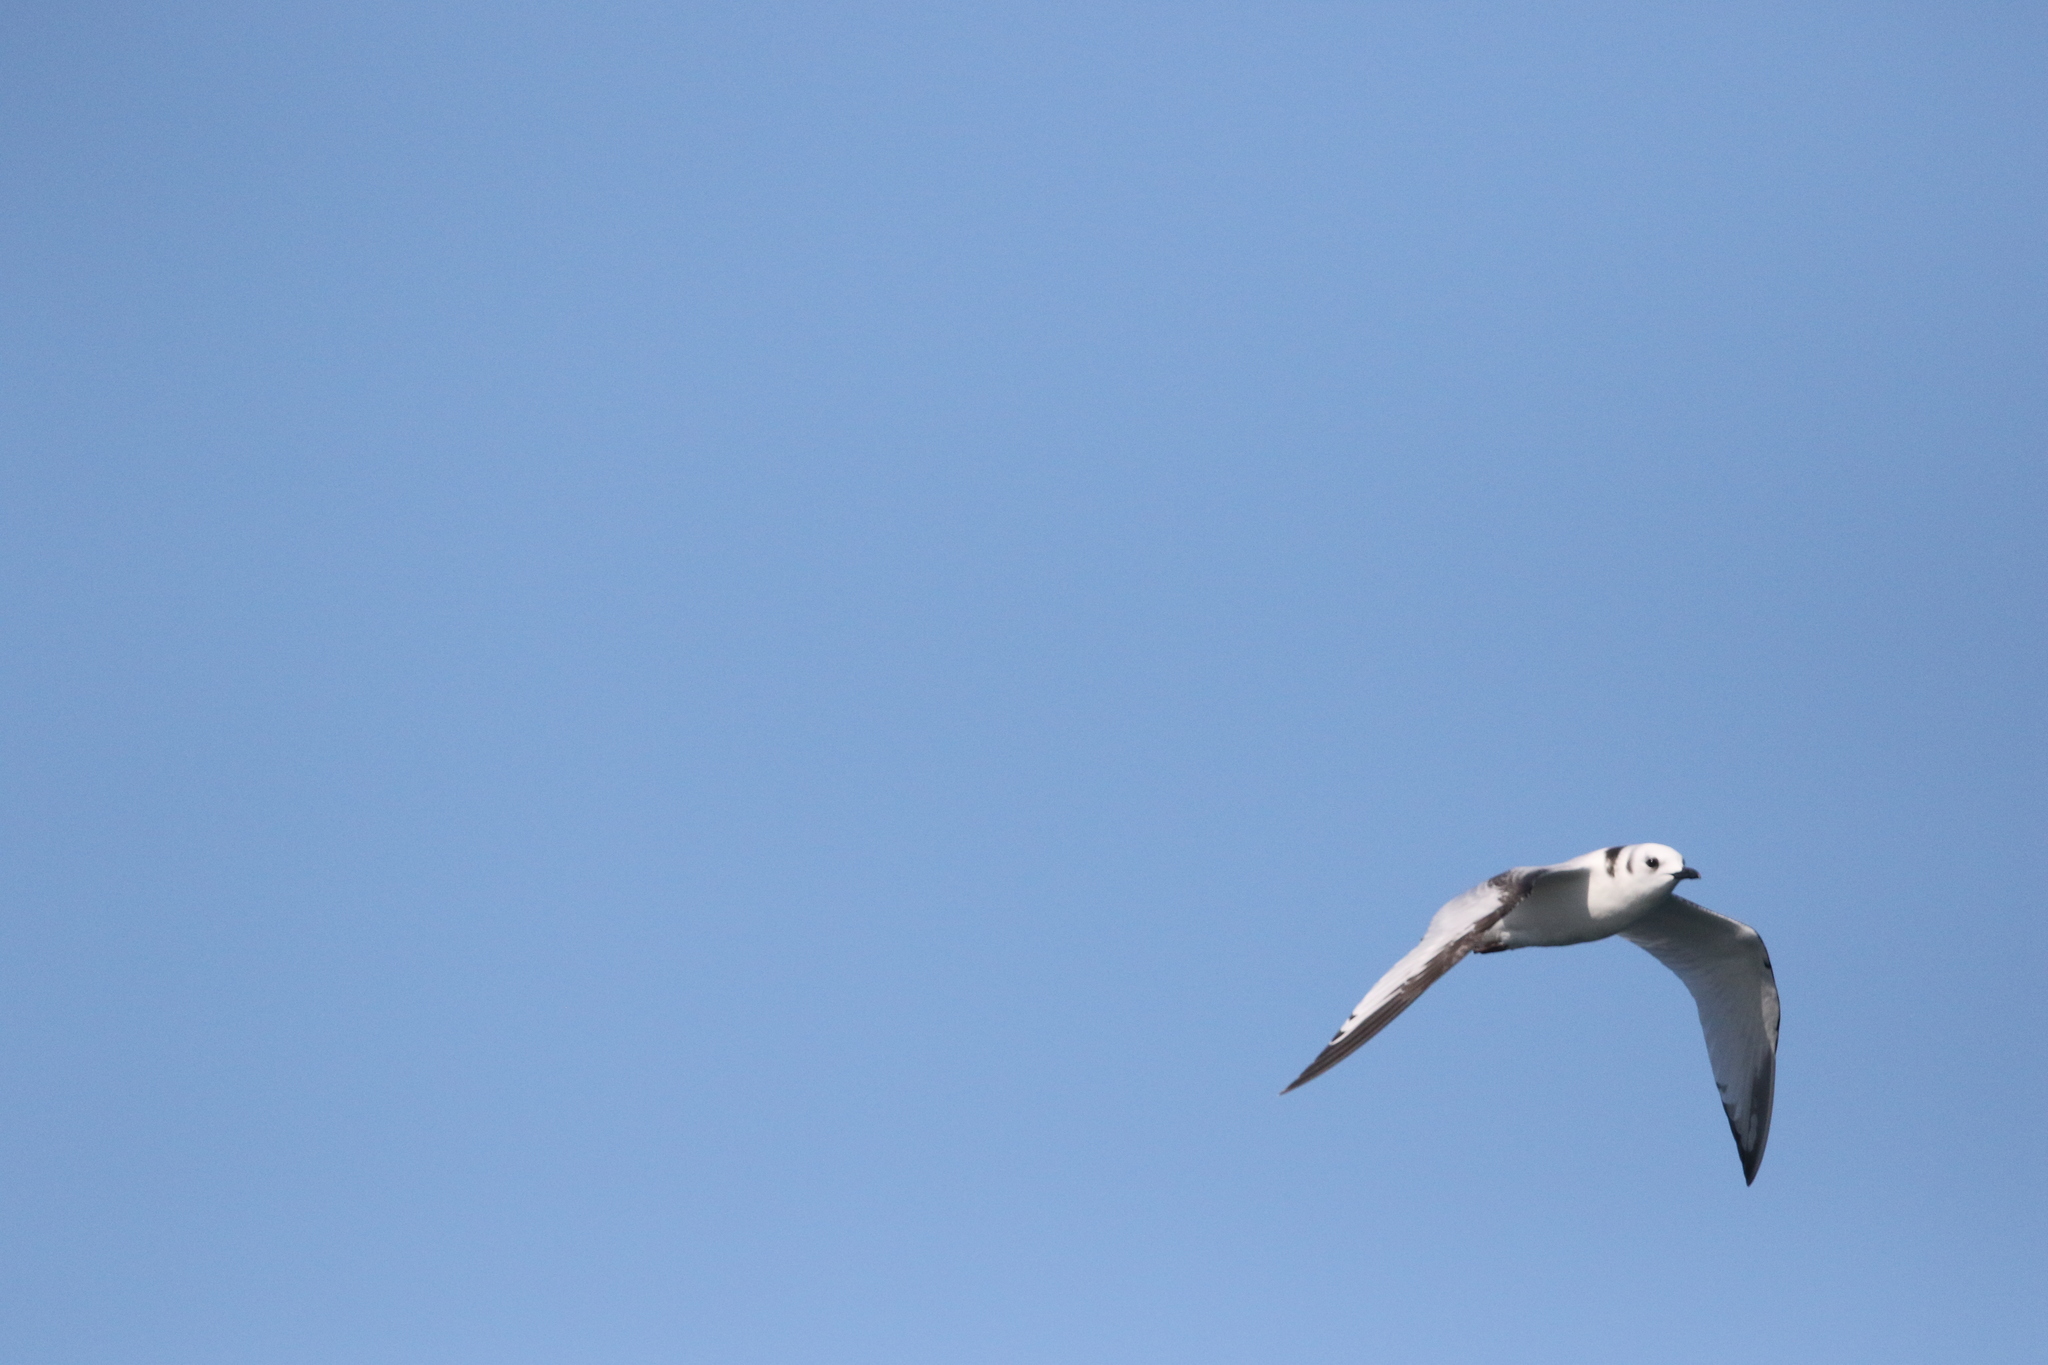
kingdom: Animalia
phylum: Chordata
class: Aves
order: Charadriiformes
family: Laridae
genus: Rissa
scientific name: Rissa tridactyla
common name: Black-legged kittiwake
